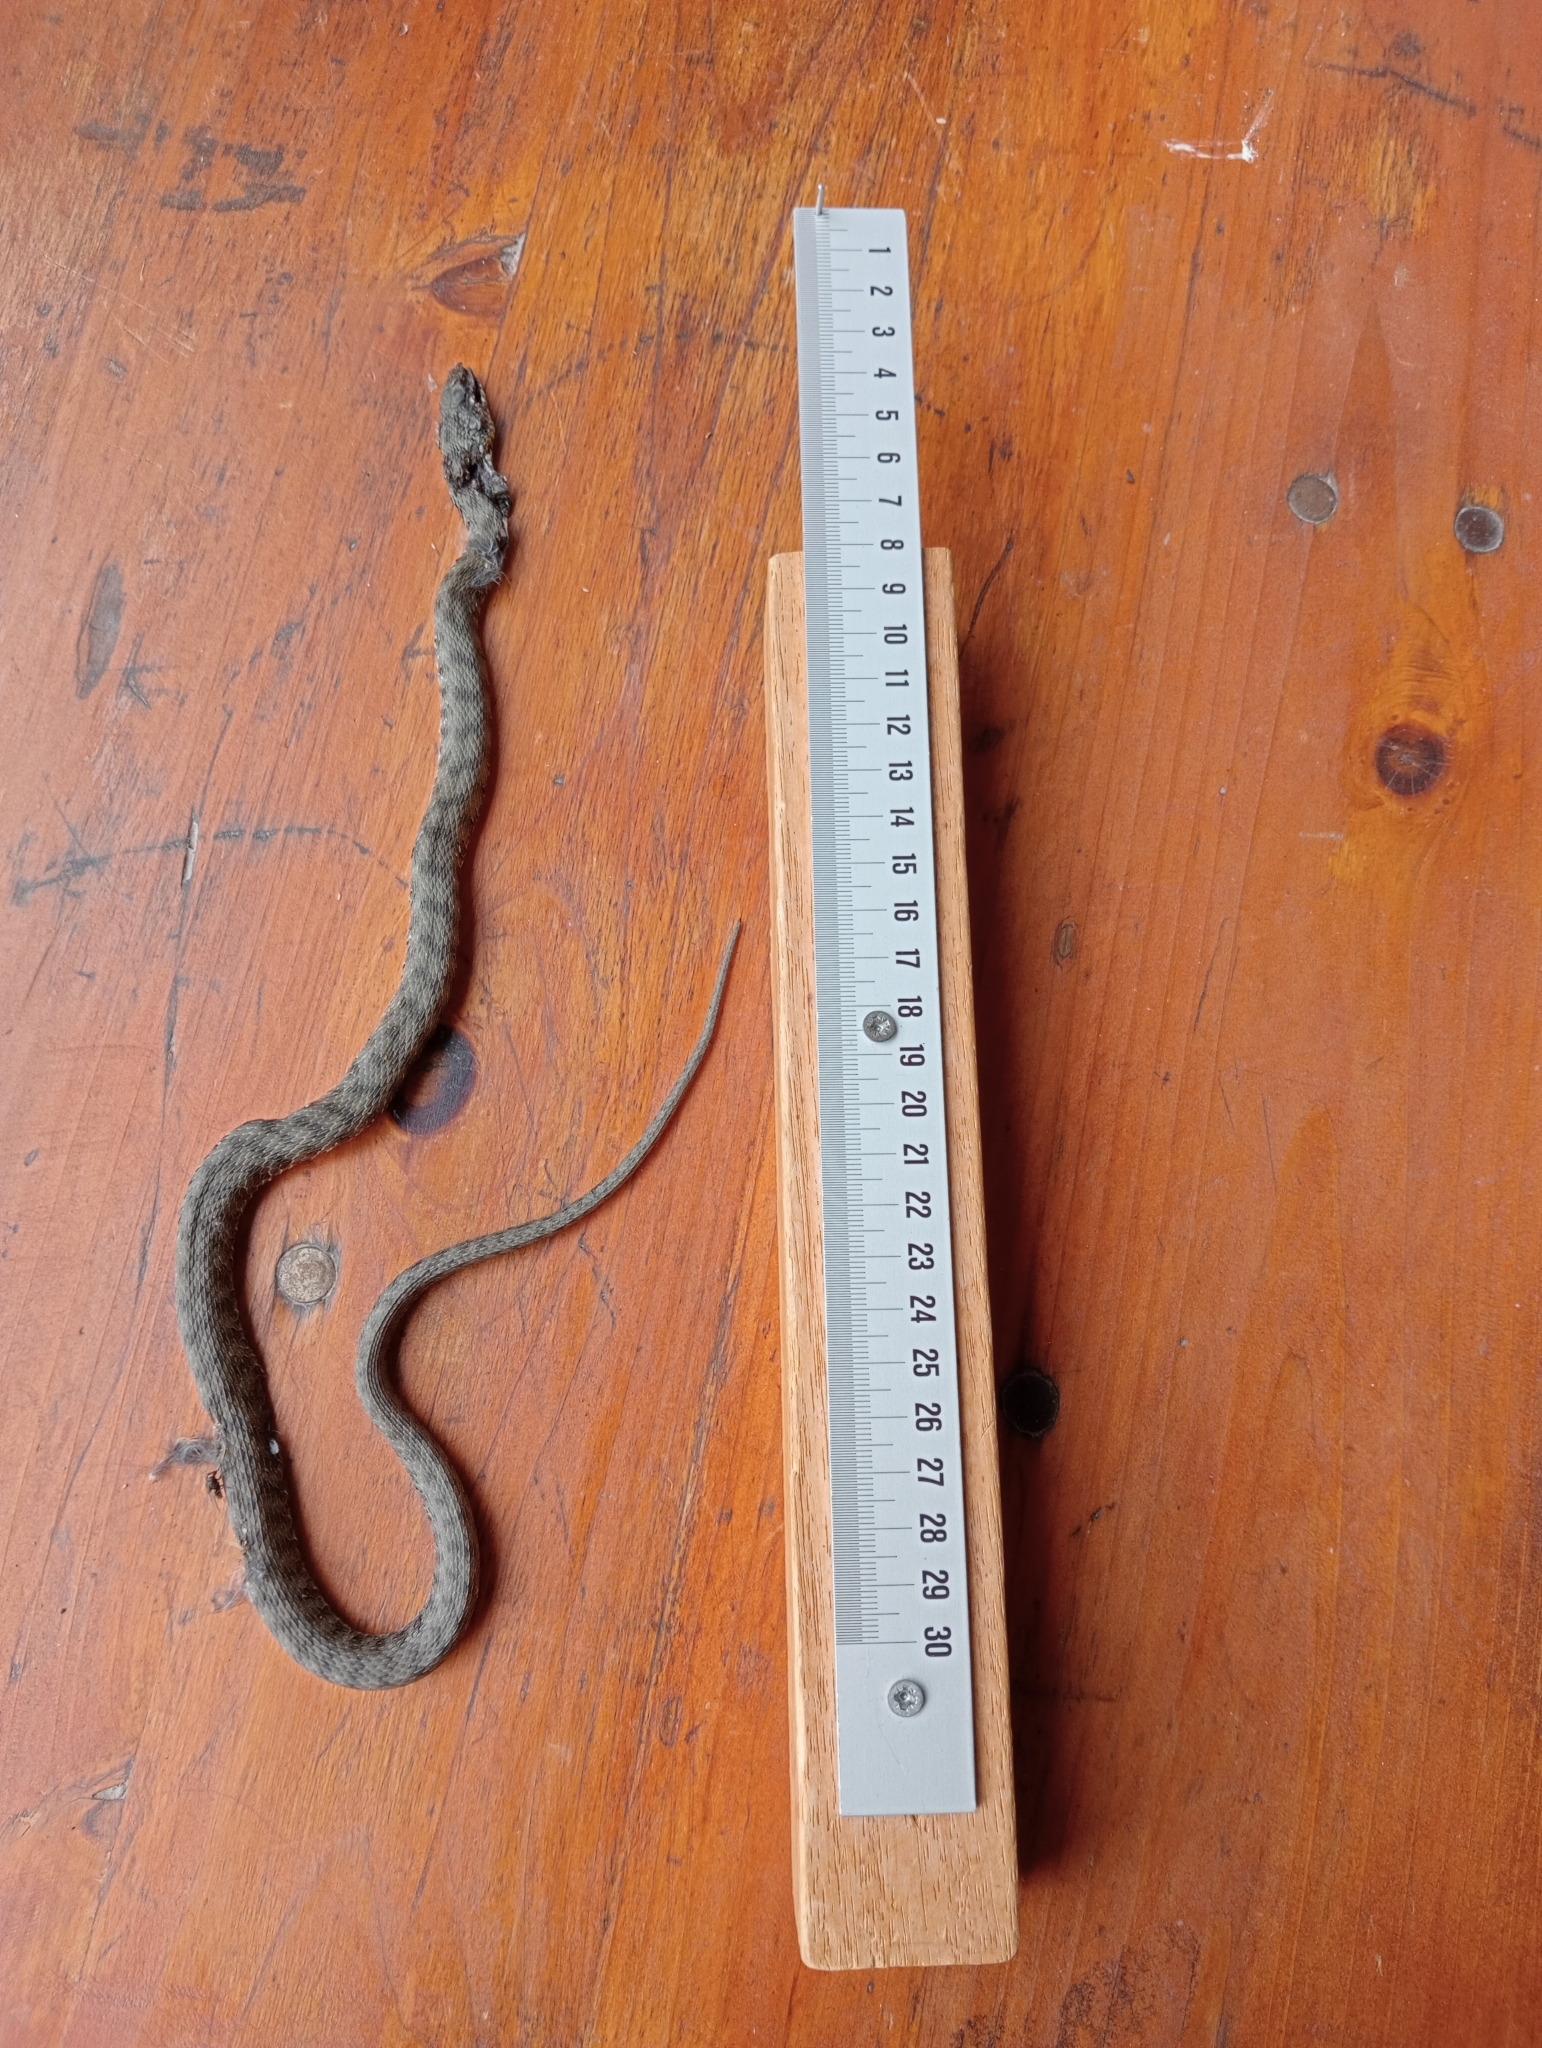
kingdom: Animalia
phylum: Chordata
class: Squamata
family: Colubridae
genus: Natrix
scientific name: Natrix tessellata
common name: Dice snake
